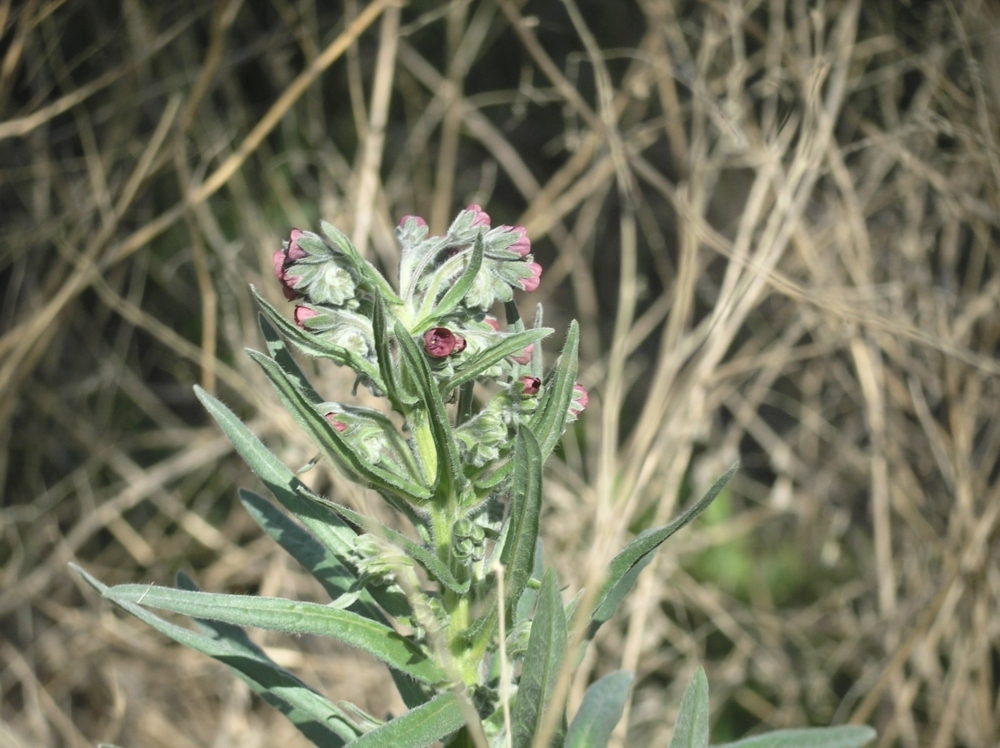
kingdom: Plantae
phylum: Tracheophyta
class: Magnoliopsida
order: Boraginales
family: Boraginaceae
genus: Cynoglossum
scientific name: Cynoglossum officinale
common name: Hound's-tongue
